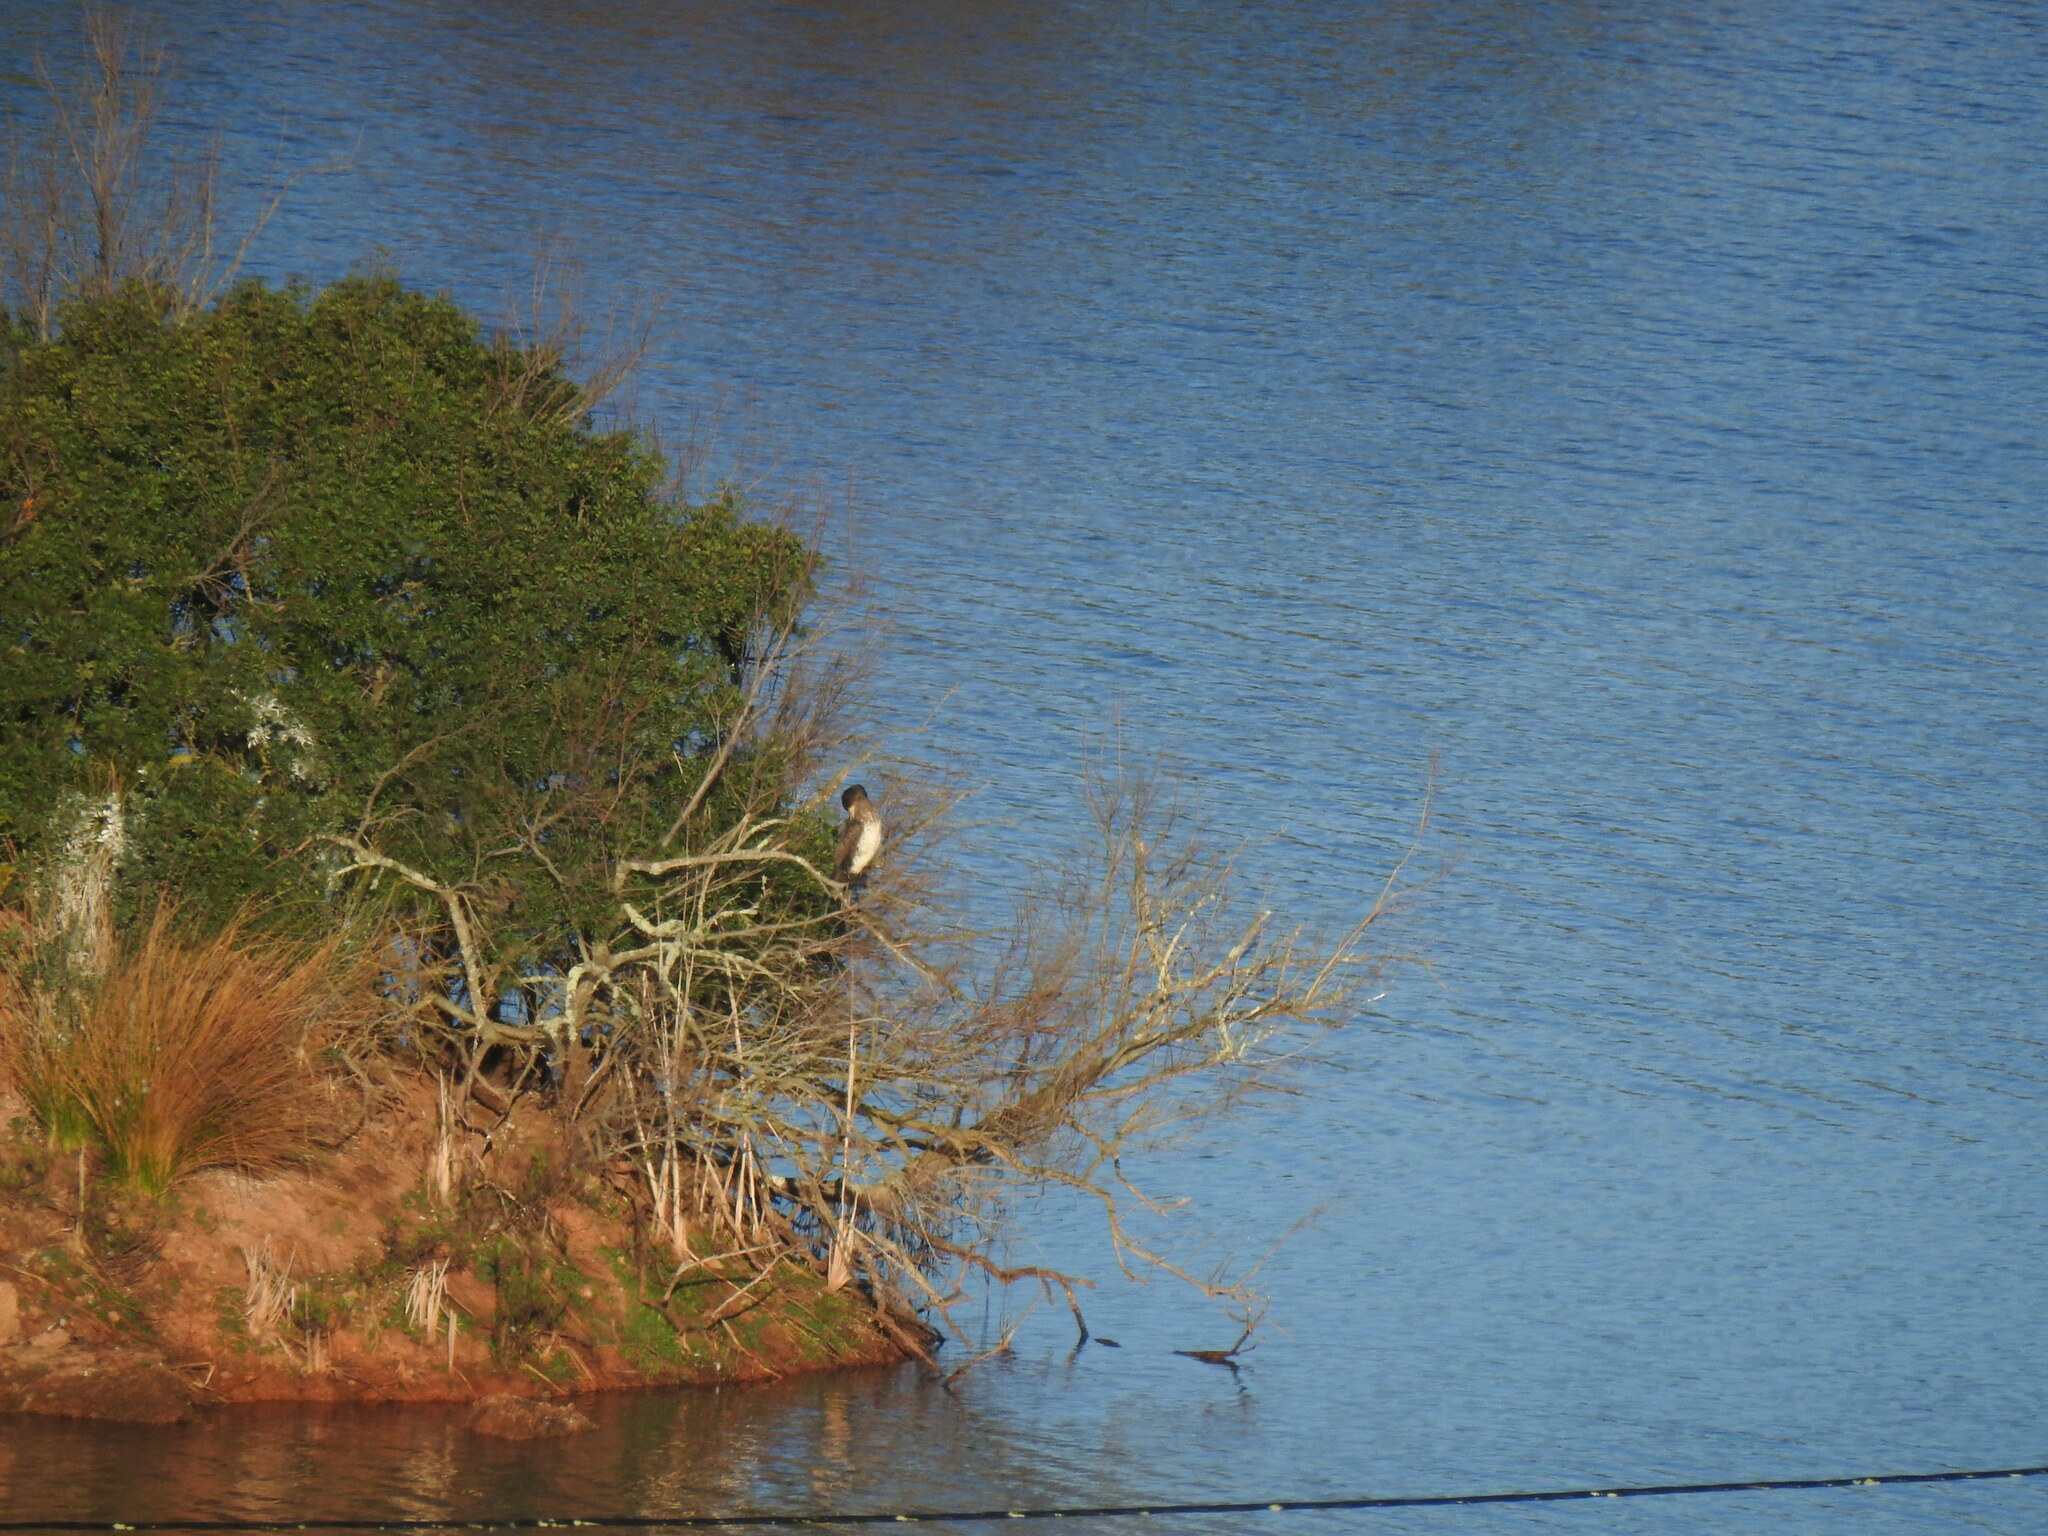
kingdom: Animalia
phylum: Chordata
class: Aves
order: Suliformes
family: Phalacrocoracidae
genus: Phalacrocorax
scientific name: Phalacrocorax carbo
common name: Great cormorant
